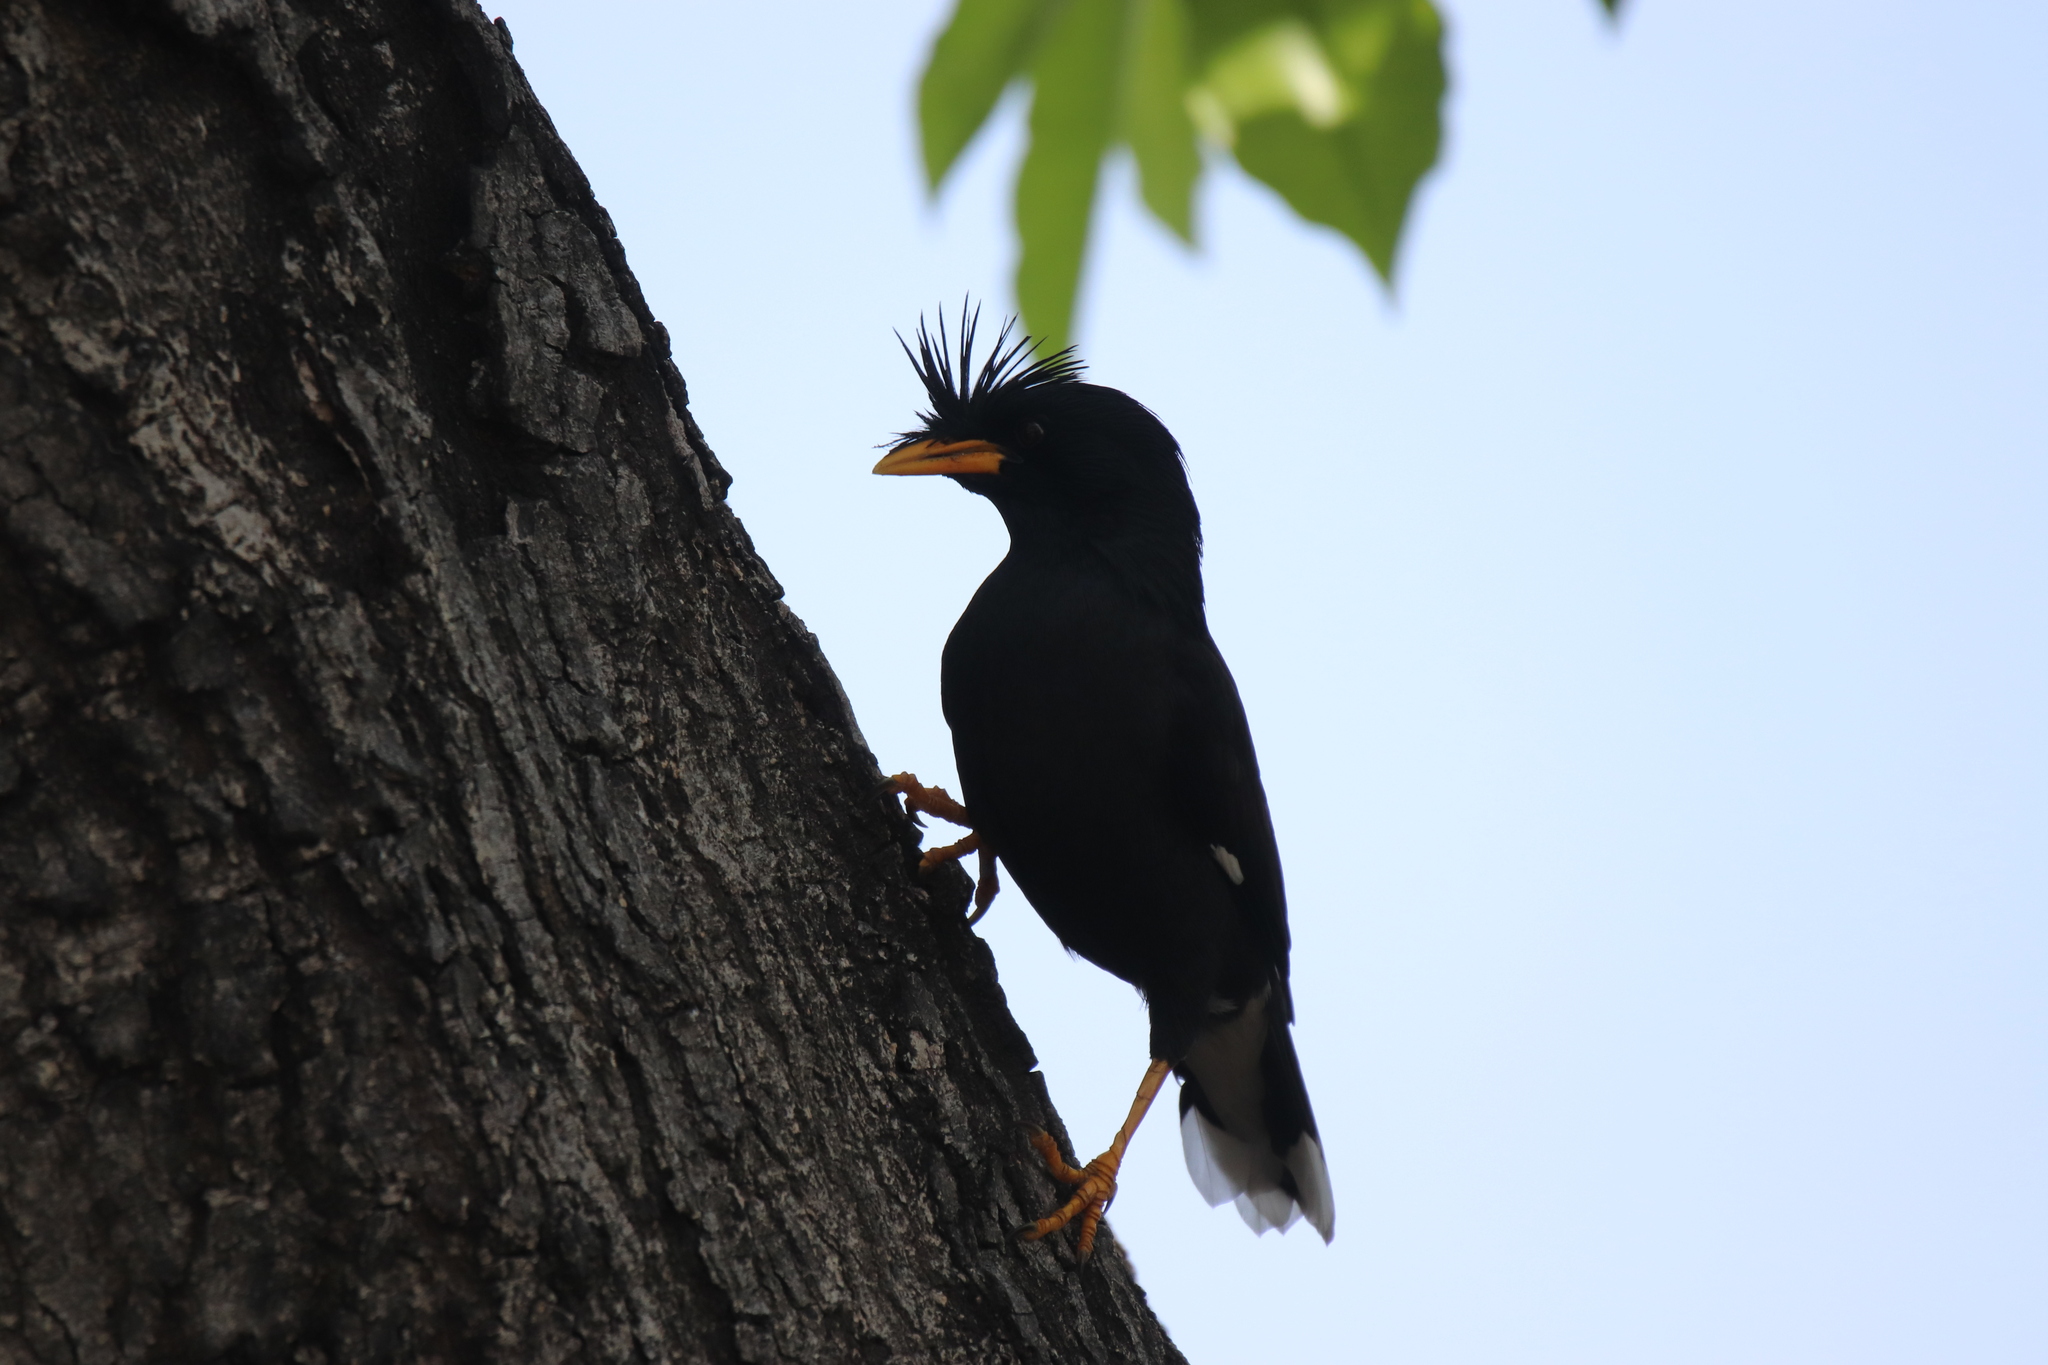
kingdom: Animalia
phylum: Chordata
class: Aves
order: Passeriformes
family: Sturnidae
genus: Acridotheres
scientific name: Acridotheres grandis
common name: Great myna
